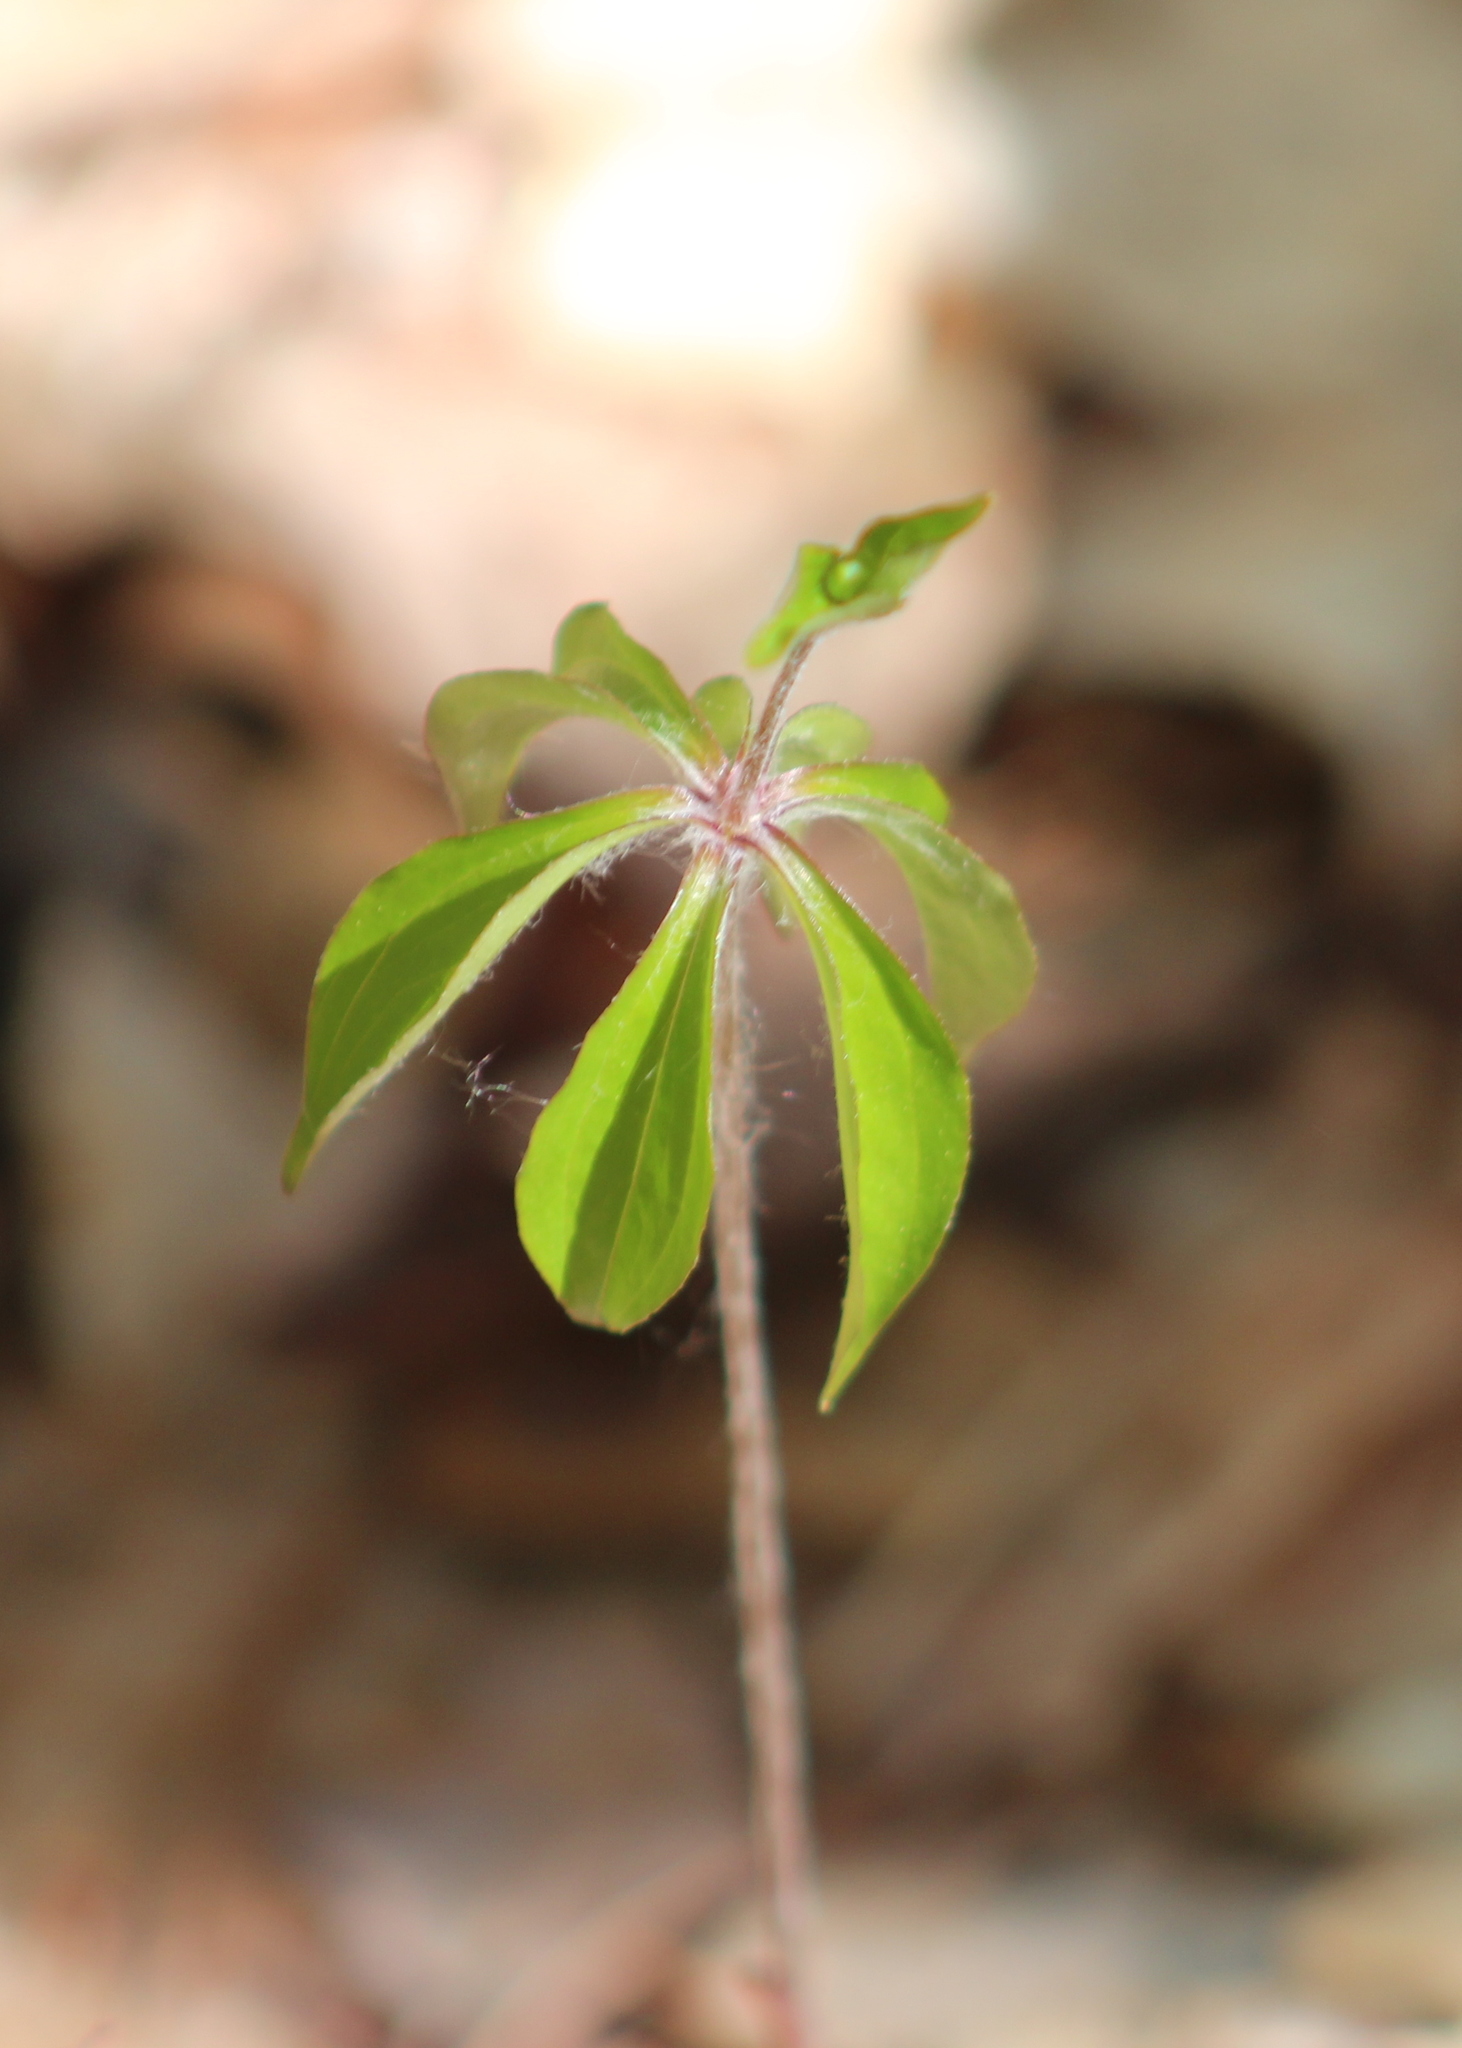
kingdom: Plantae
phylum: Tracheophyta
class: Liliopsida
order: Liliales
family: Liliaceae
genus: Medeola
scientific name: Medeola virginiana
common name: Indian cucumber-root
